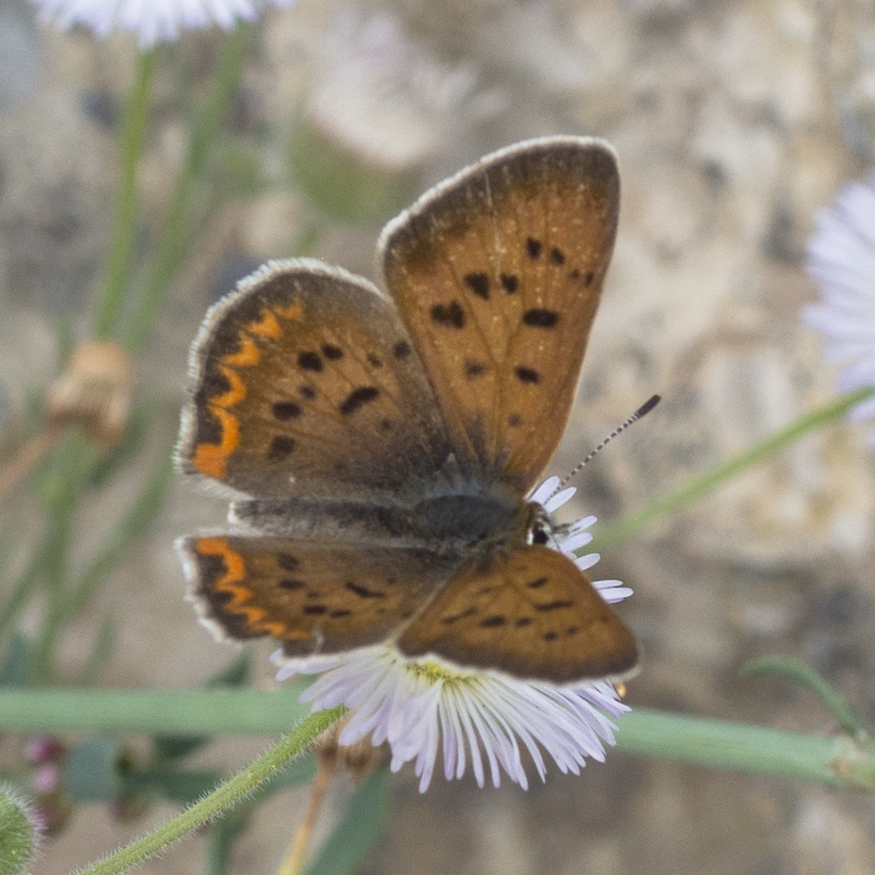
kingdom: Animalia
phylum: Arthropoda
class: Insecta
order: Lepidoptera
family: Lycaenidae
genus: Tharsalea
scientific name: Tharsalea helloides
